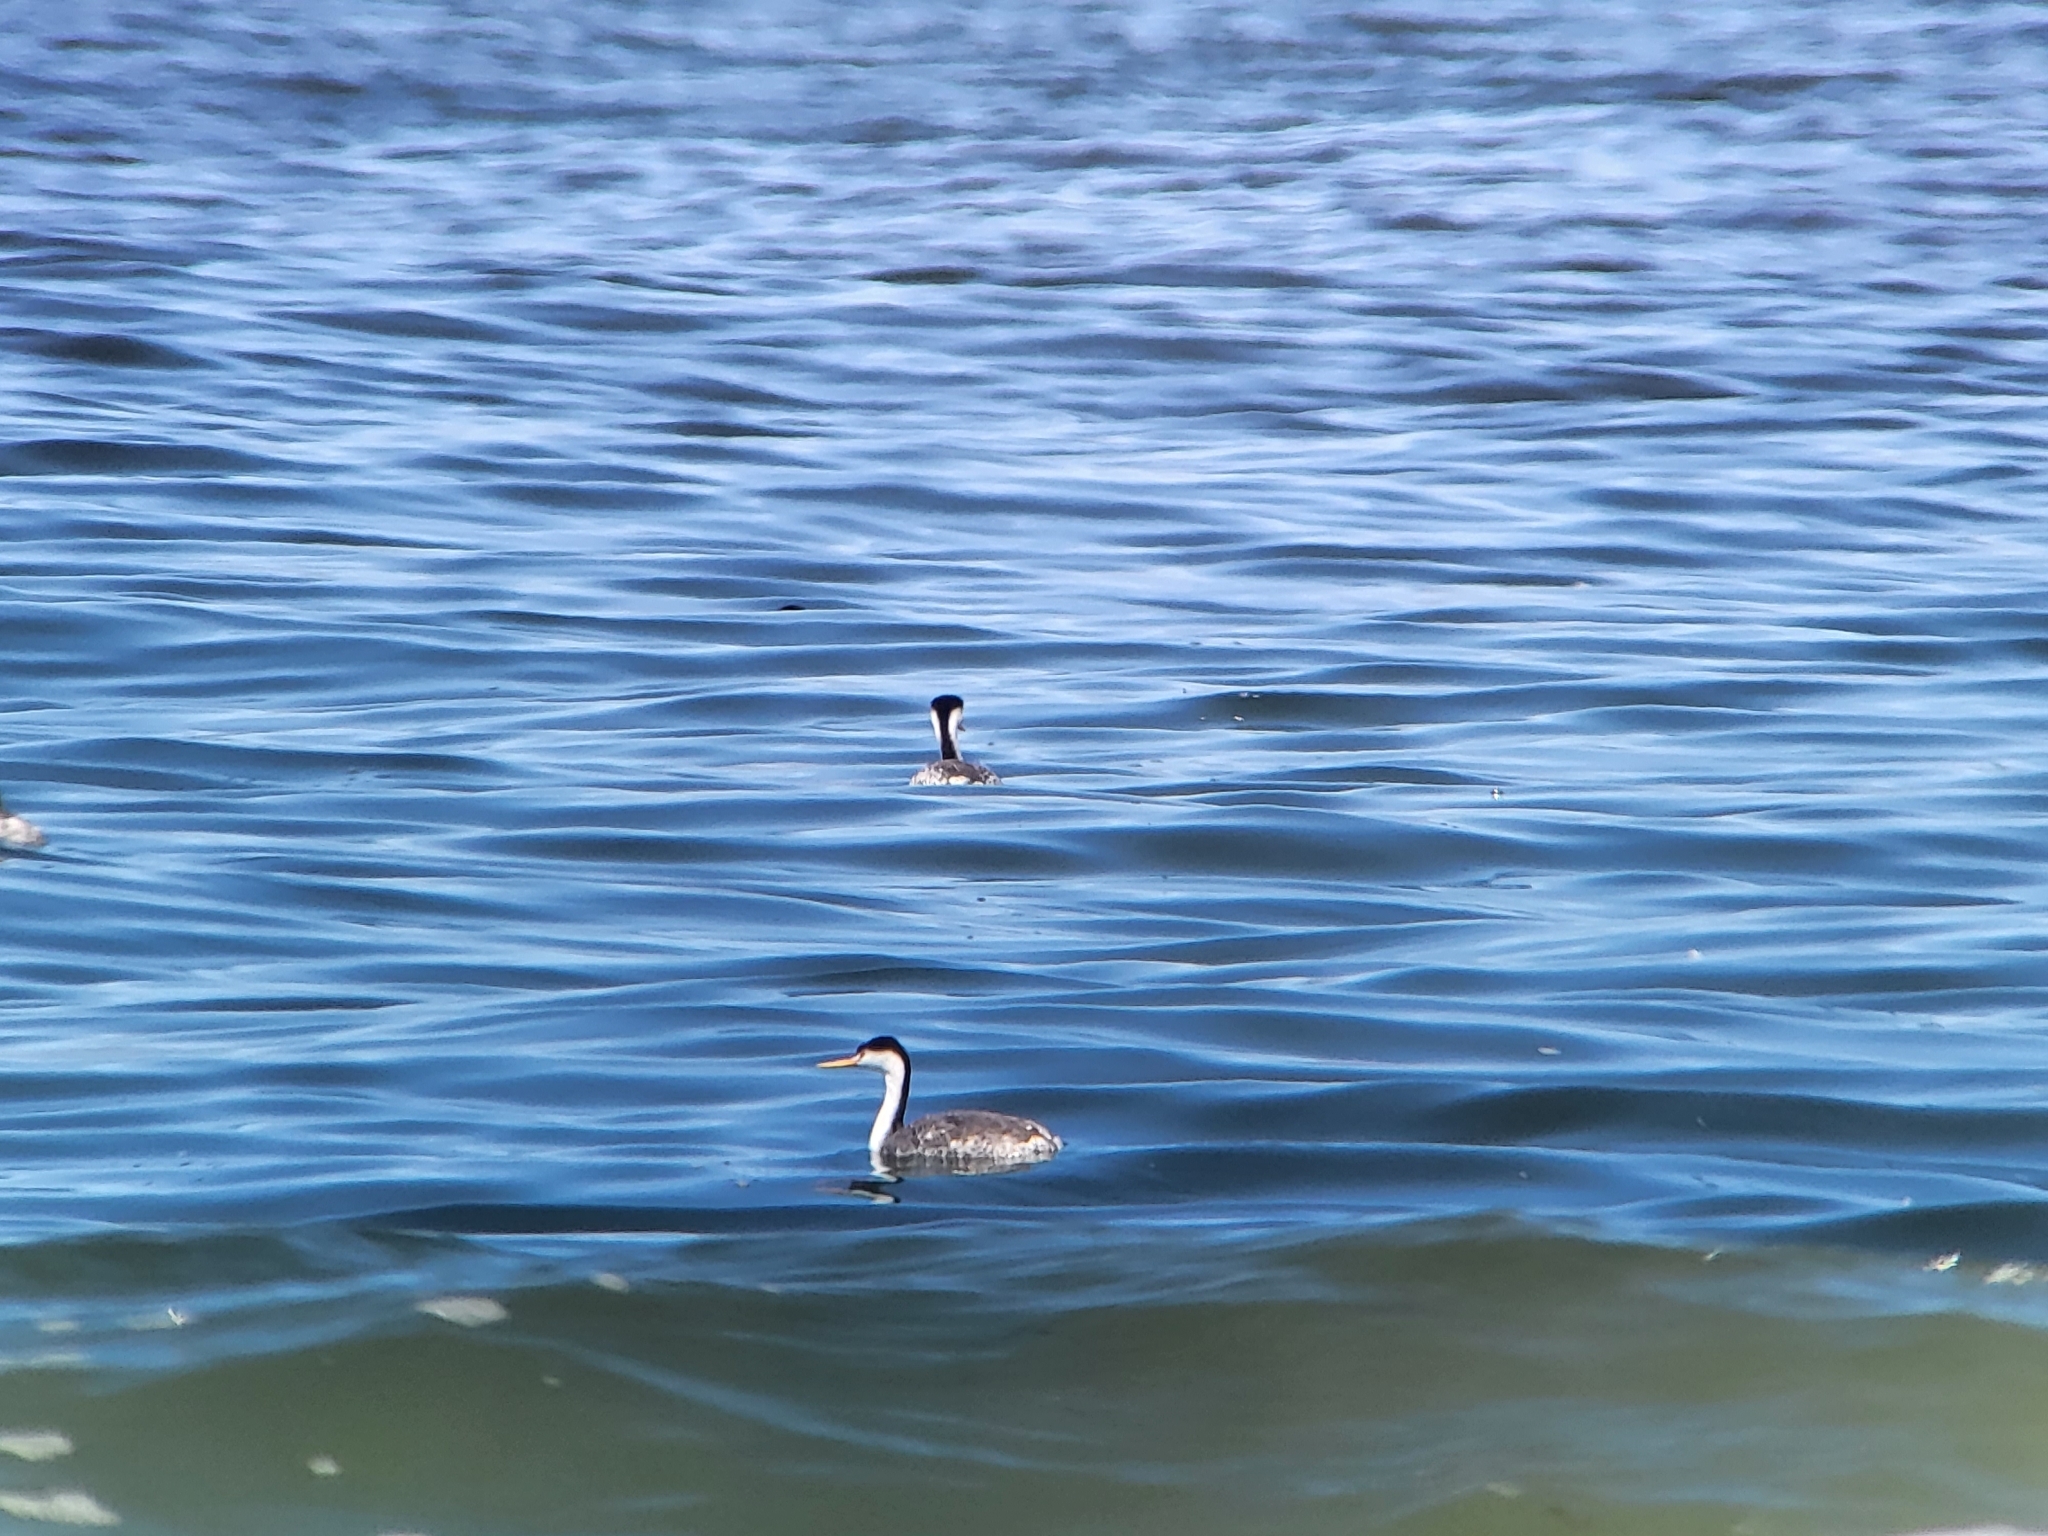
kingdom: Animalia
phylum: Chordata
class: Aves
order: Podicipediformes
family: Podicipedidae
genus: Aechmophorus
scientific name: Aechmophorus clarkii
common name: Clark's grebe
